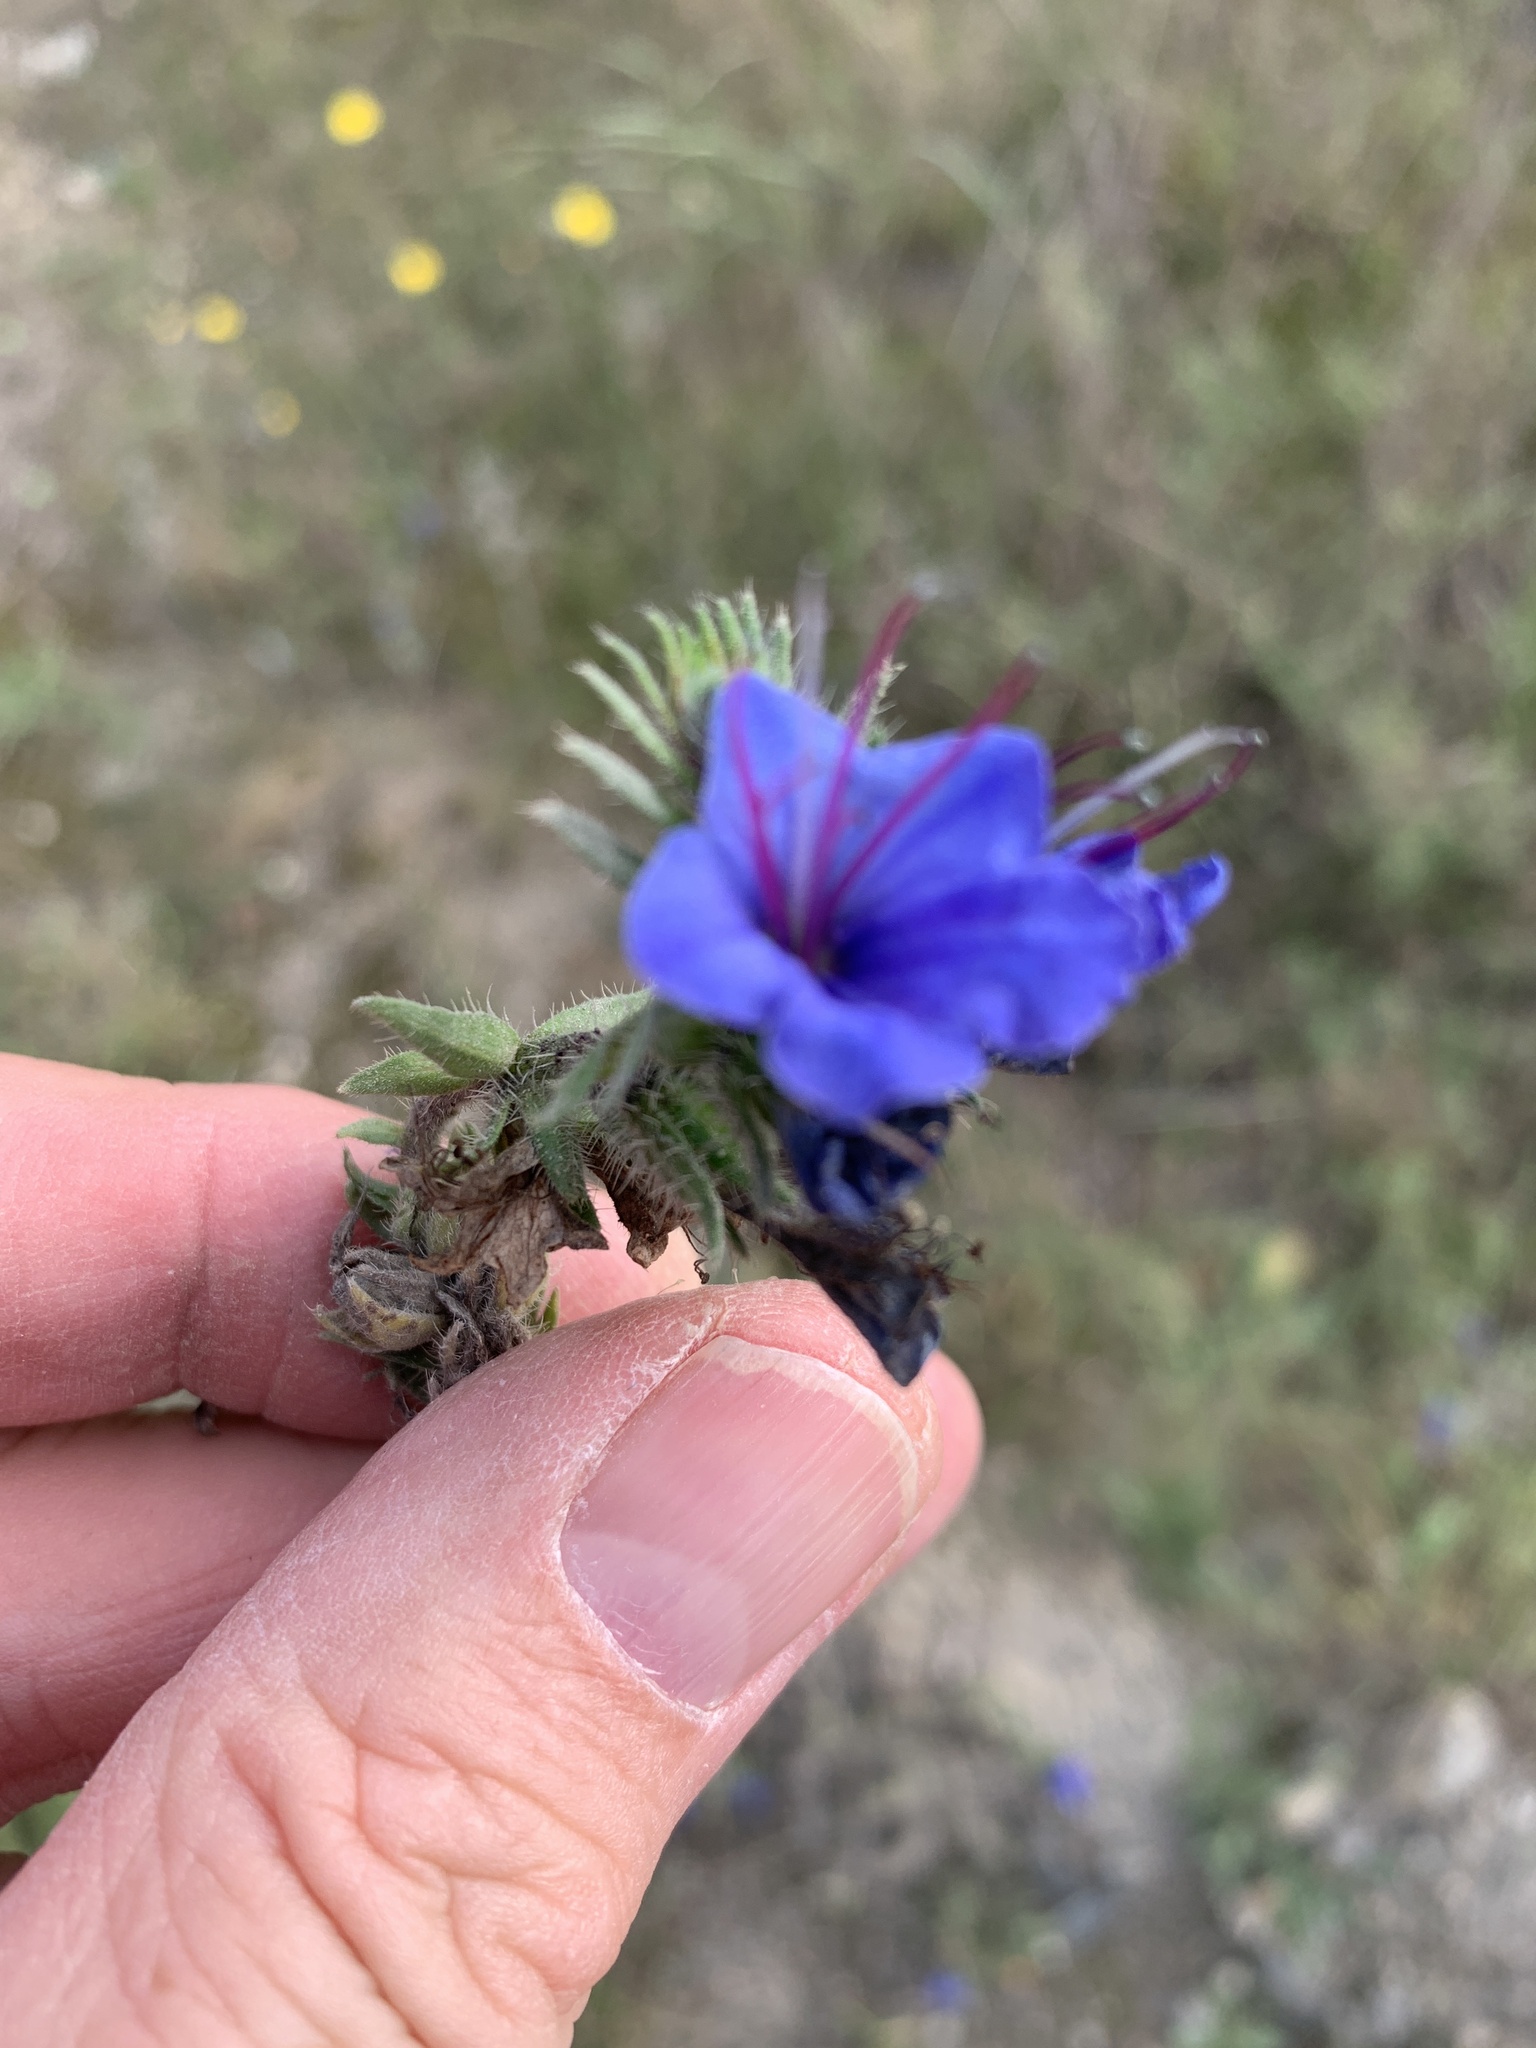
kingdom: Plantae
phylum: Tracheophyta
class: Magnoliopsida
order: Boraginales
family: Boraginaceae
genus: Echium
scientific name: Echium vulgare
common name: Common viper's bugloss
